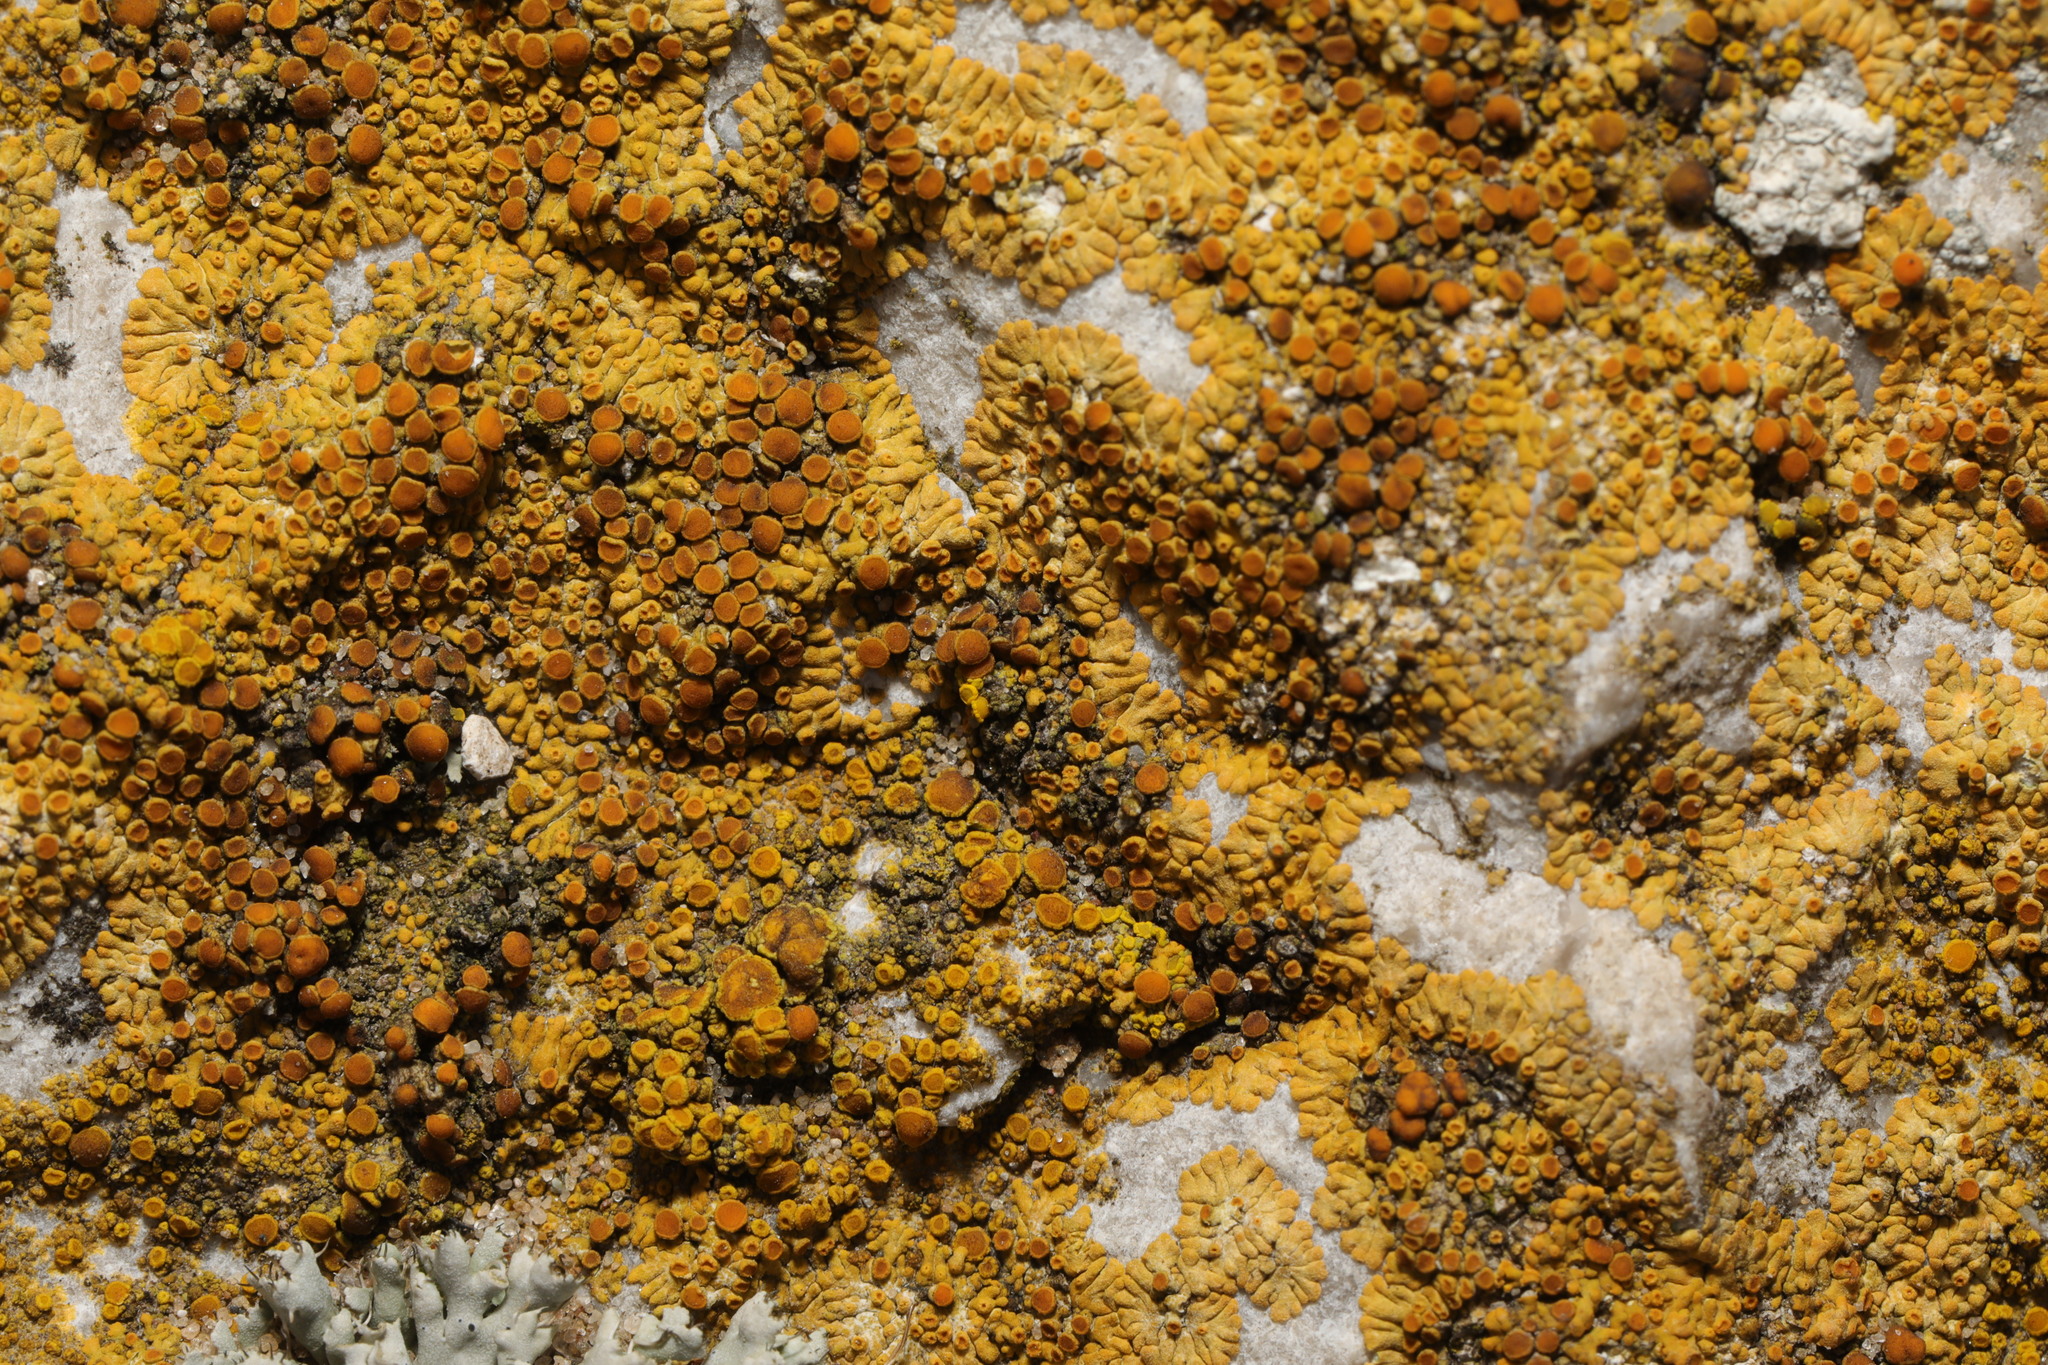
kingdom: Fungi
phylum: Ascomycota
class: Lecanoromycetes
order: Teloschistales
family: Teloschistaceae
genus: Calogaya
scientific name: Calogaya saxicola
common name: Rock jewel lichen
